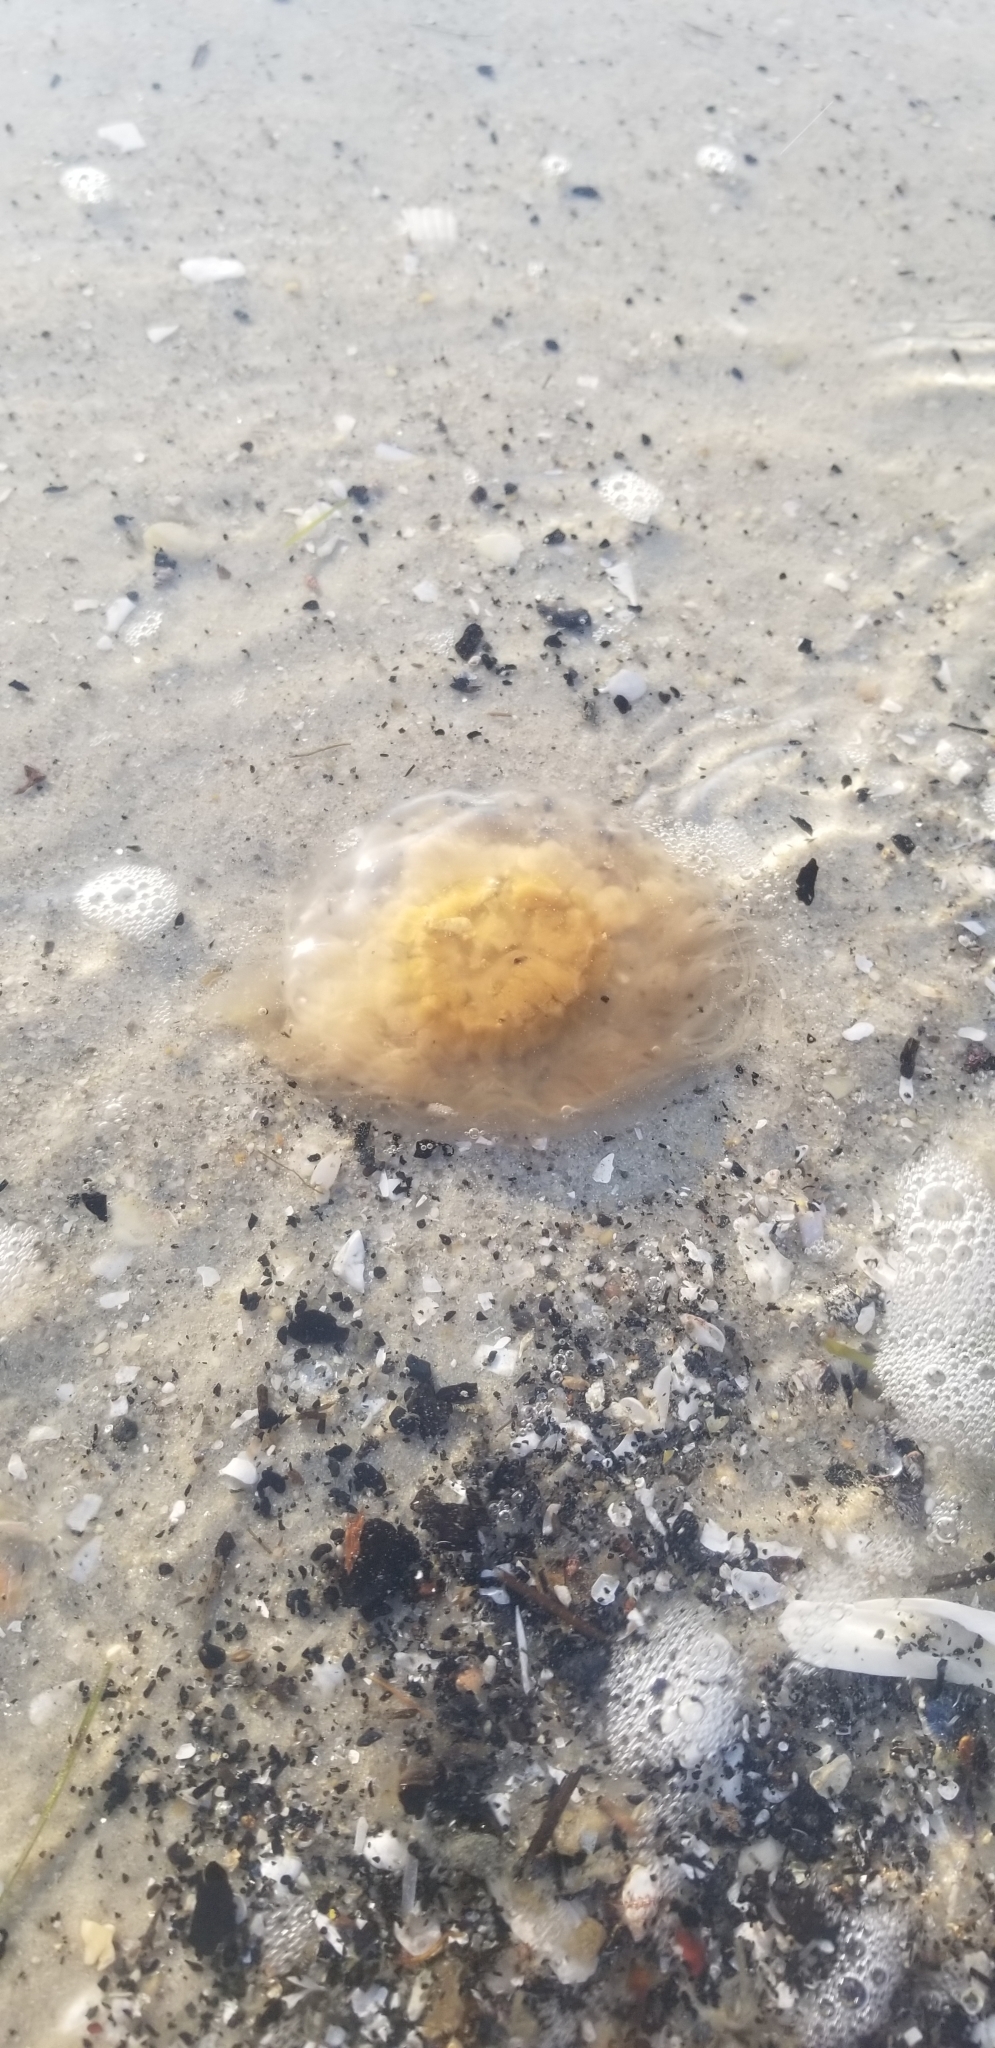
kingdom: Animalia
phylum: Cnidaria
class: Scyphozoa
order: Semaeostomeae
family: Cyaneidae
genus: Cyanea
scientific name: Cyanea fulva
